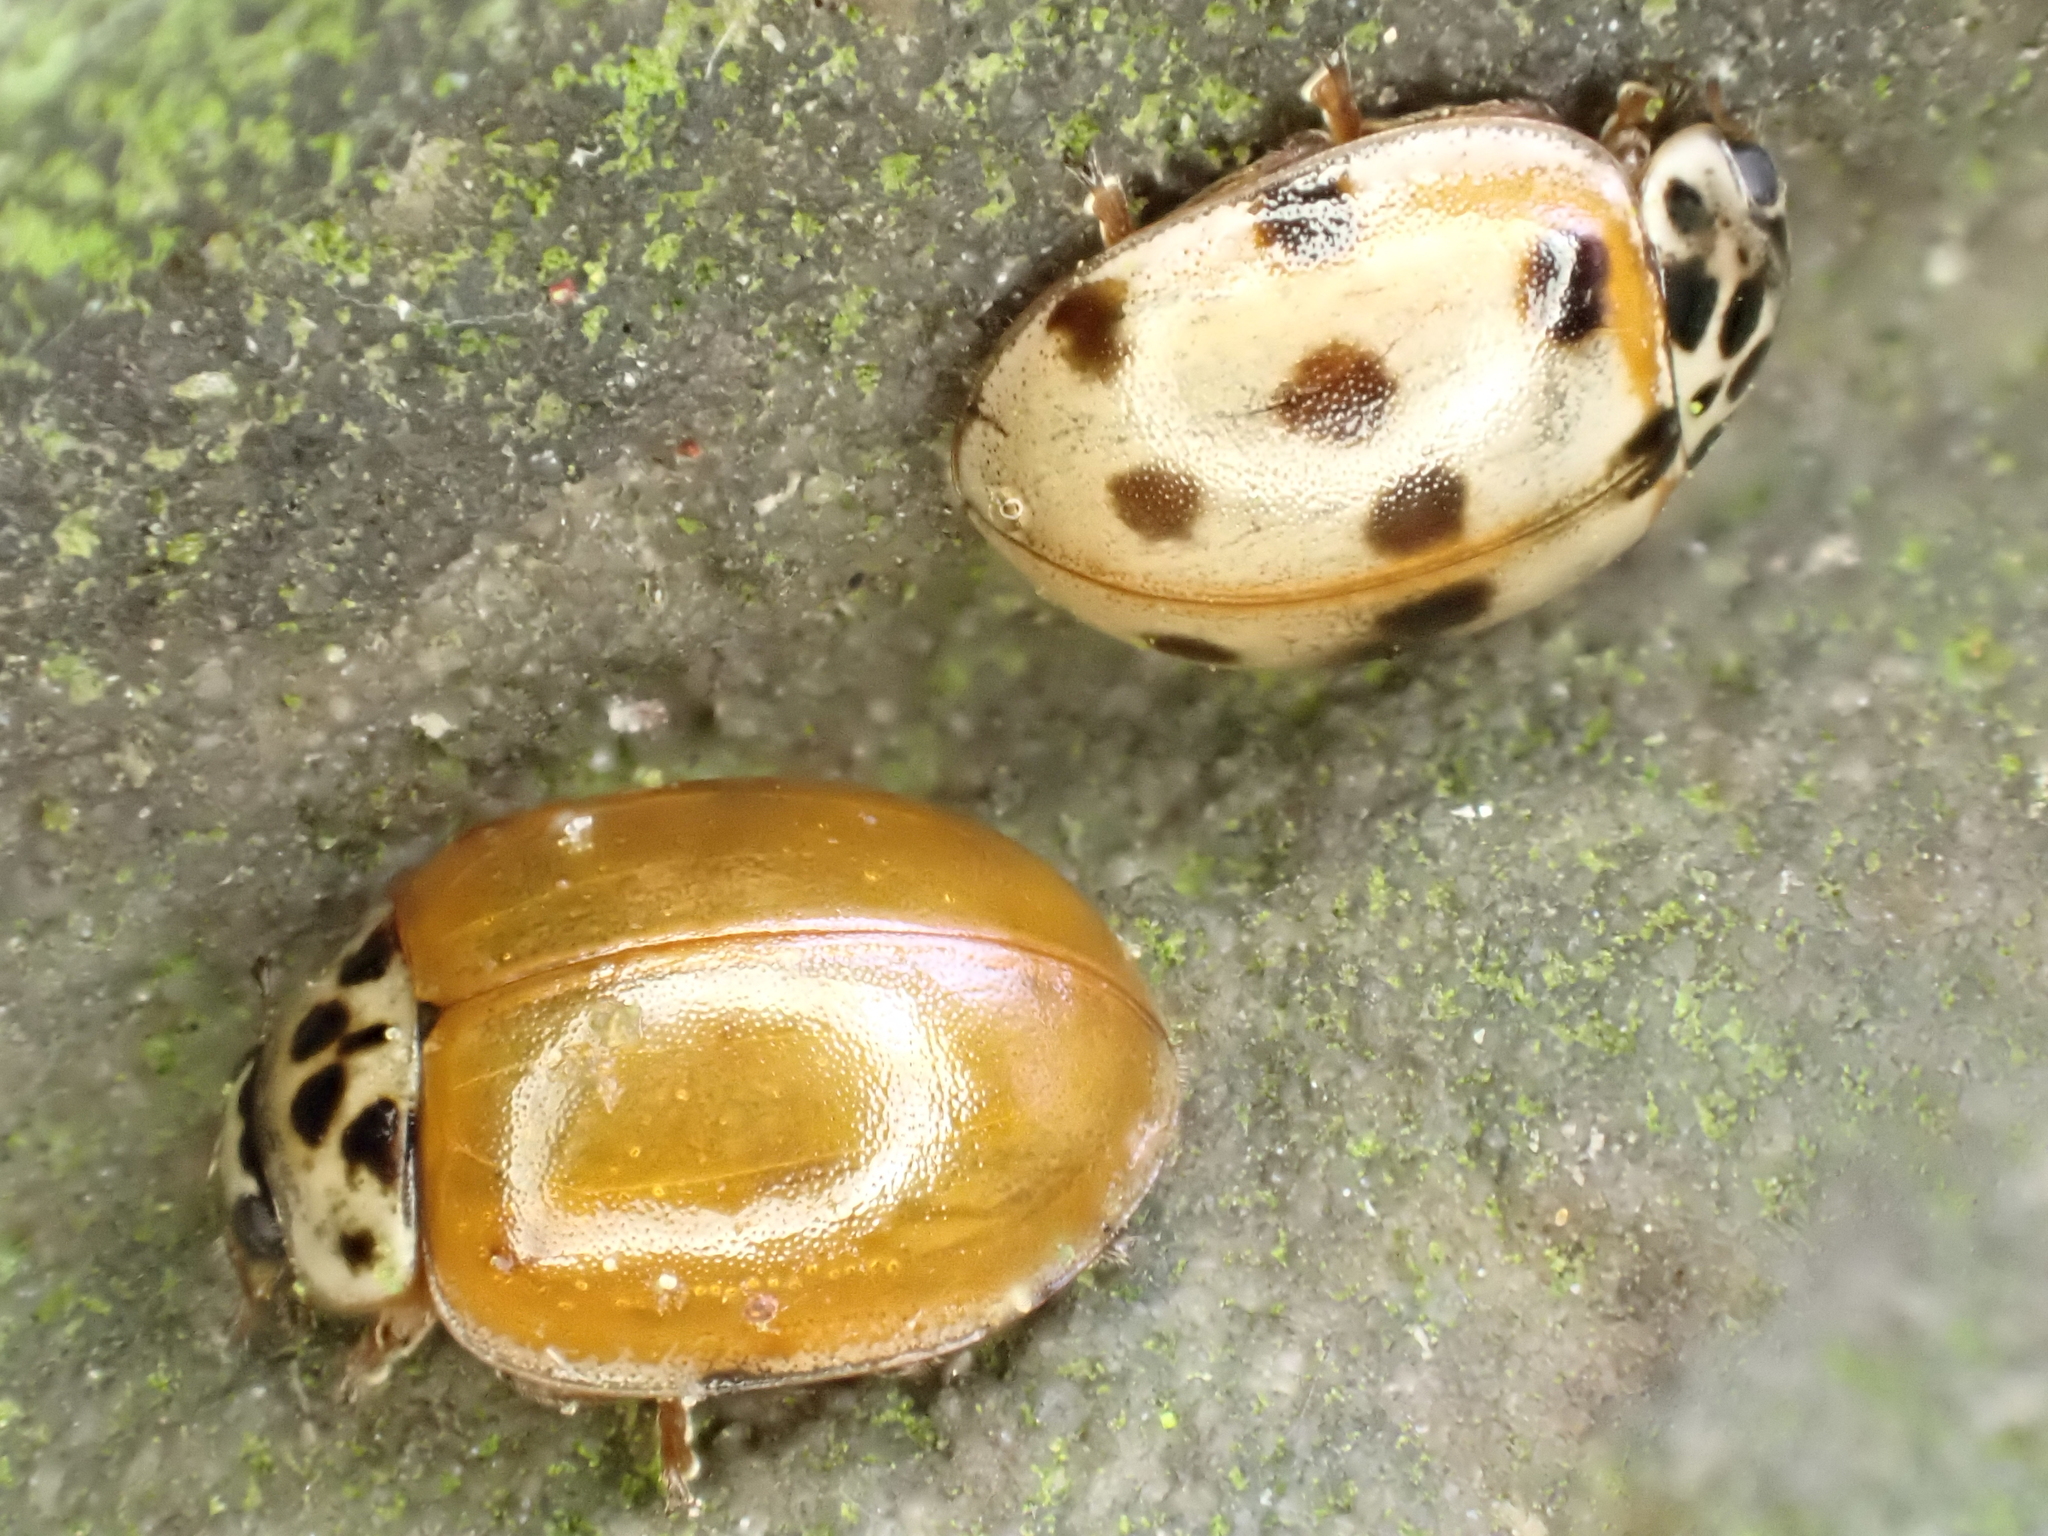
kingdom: Animalia
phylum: Arthropoda
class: Insecta
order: Coleoptera
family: Coccinellidae
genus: Adalia
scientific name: Adalia decempunctata
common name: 10-spot ladybird
